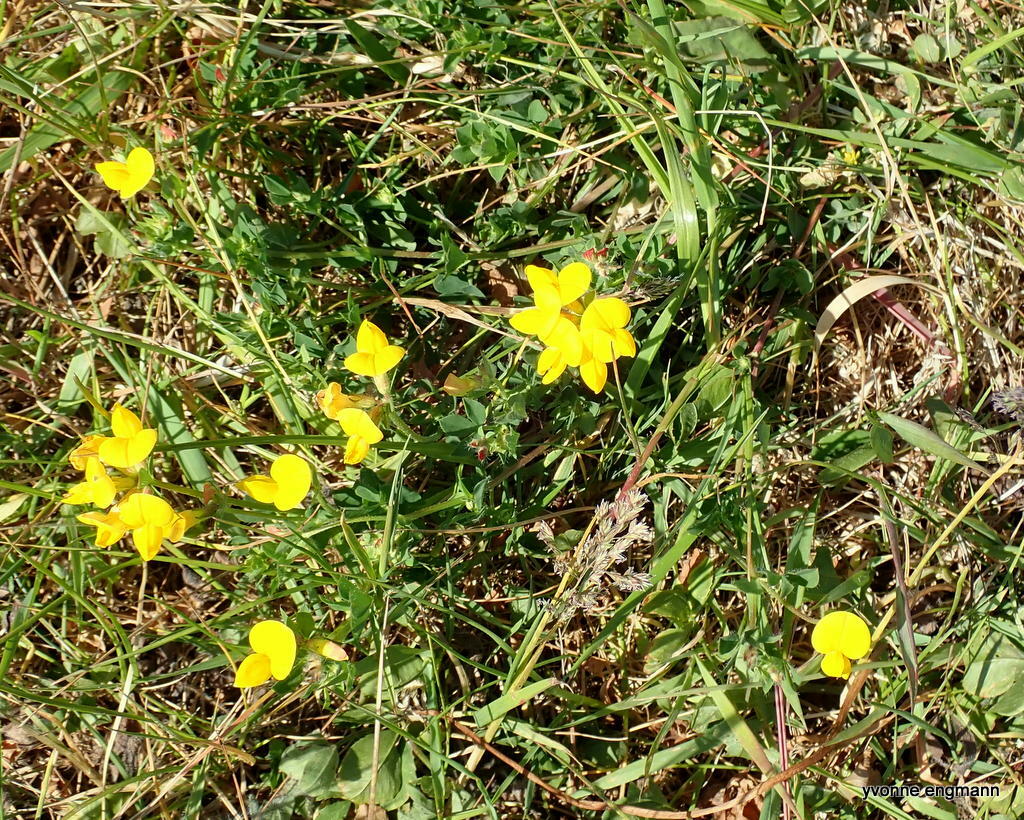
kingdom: Plantae
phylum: Tracheophyta
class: Magnoliopsida
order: Fabales
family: Fabaceae
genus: Lotus
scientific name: Lotus corniculatus
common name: Common bird's-foot-trefoil
